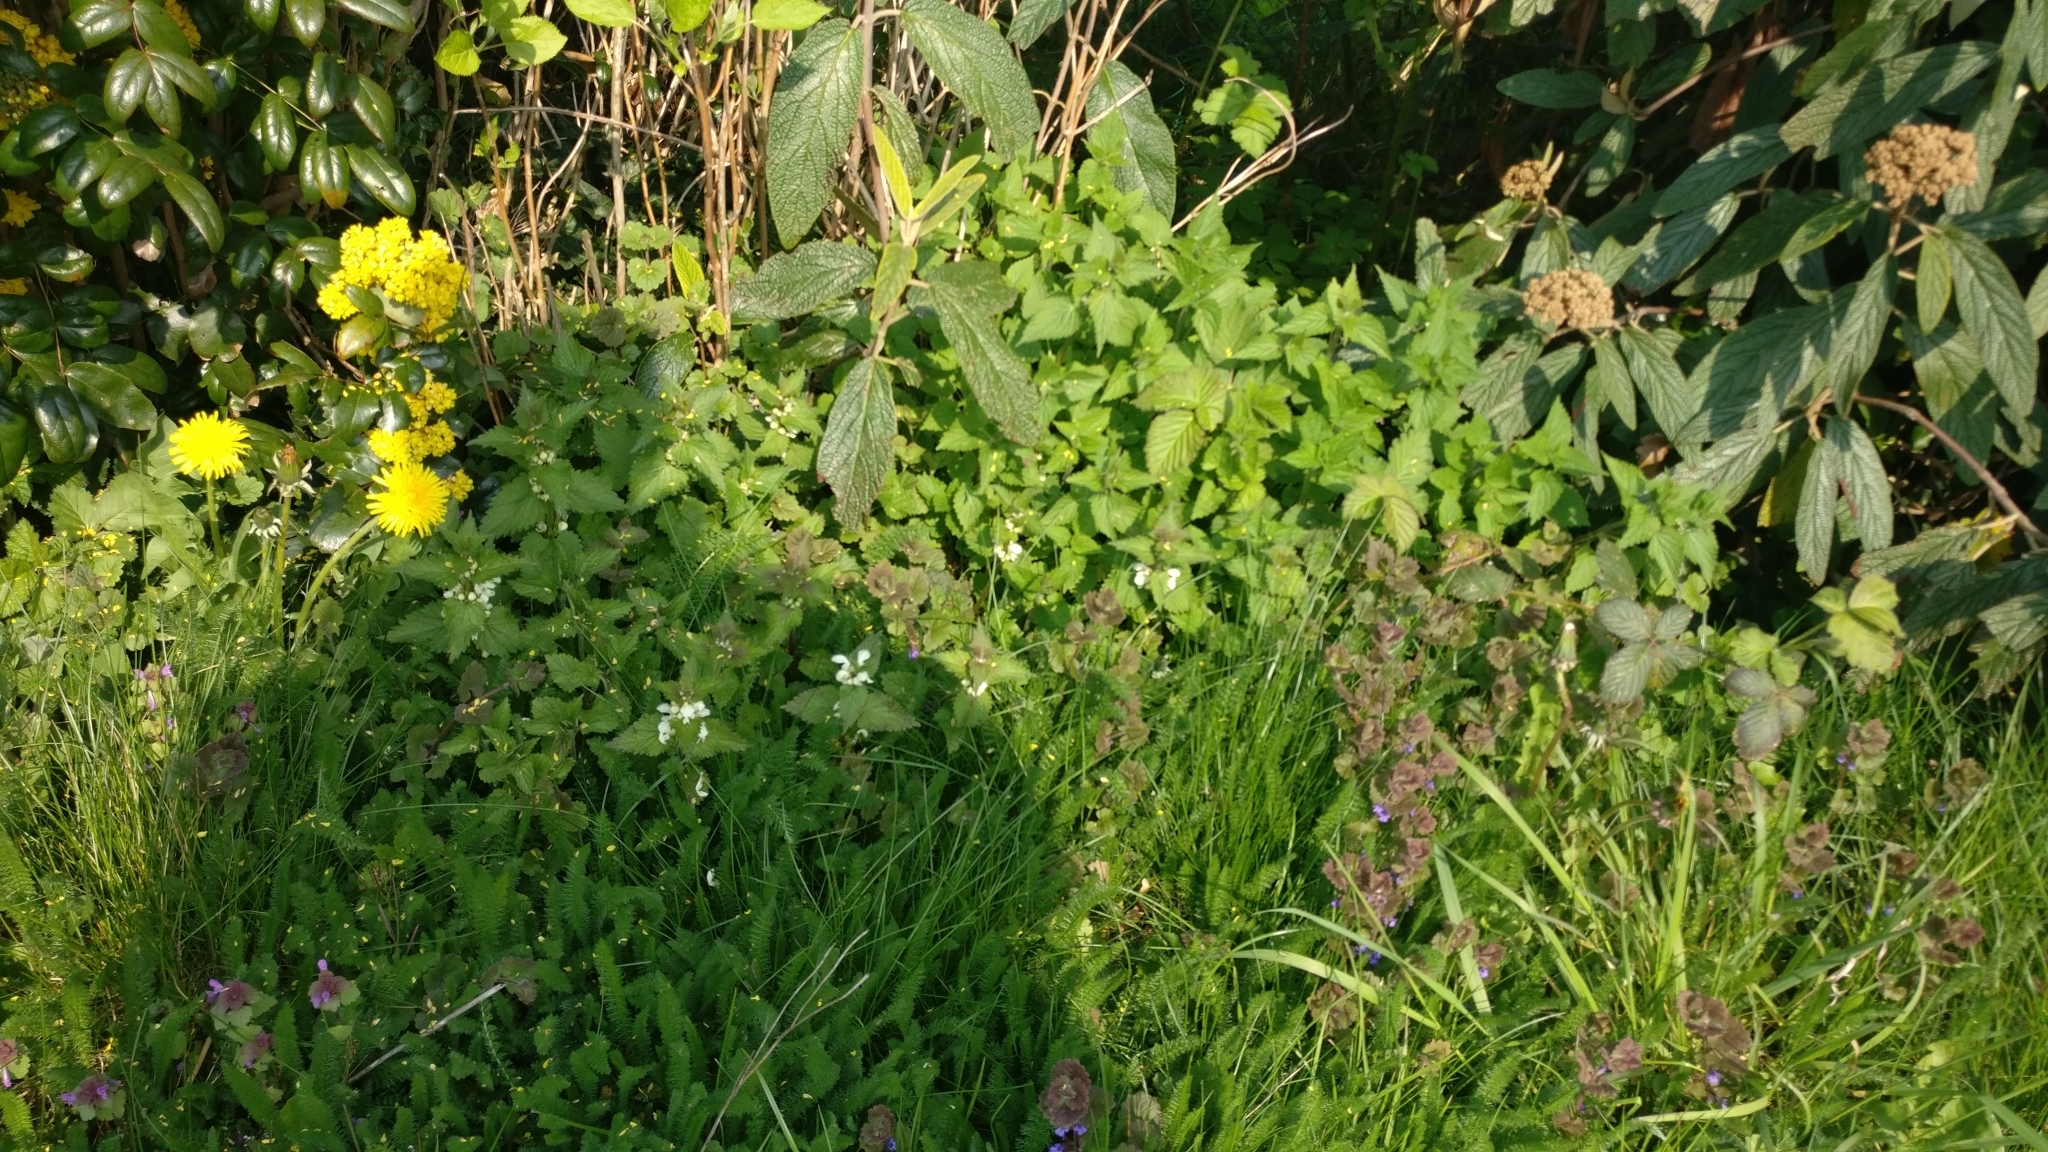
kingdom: Plantae
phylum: Tracheophyta
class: Magnoliopsida
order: Lamiales
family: Lamiaceae
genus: Lamium
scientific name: Lamium album
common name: White dead-nettle
